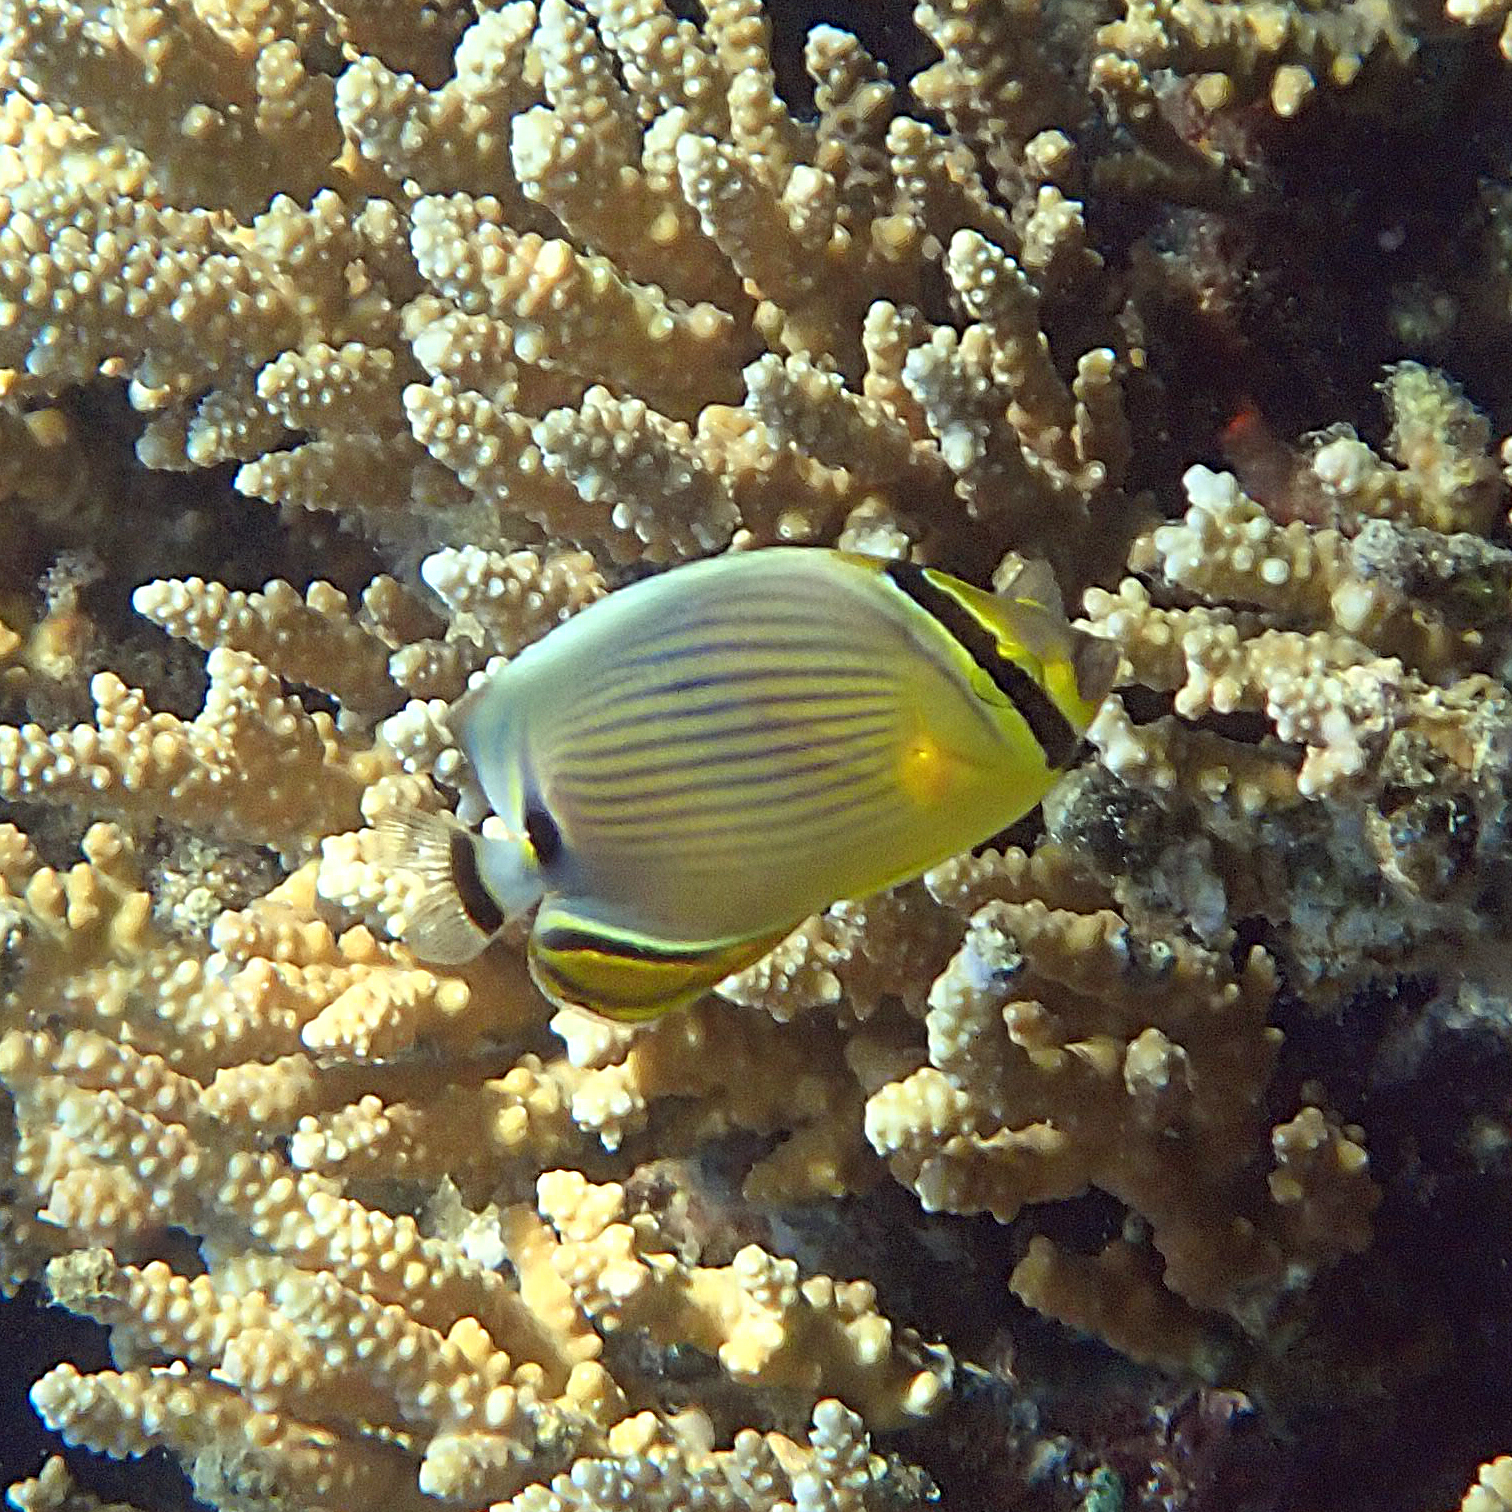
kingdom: Animalia
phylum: Chordata
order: Perciformes
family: Chaetodontidae
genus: Chaetodon
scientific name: Chaetodon lunulatus
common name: Redfin butterflyfish
